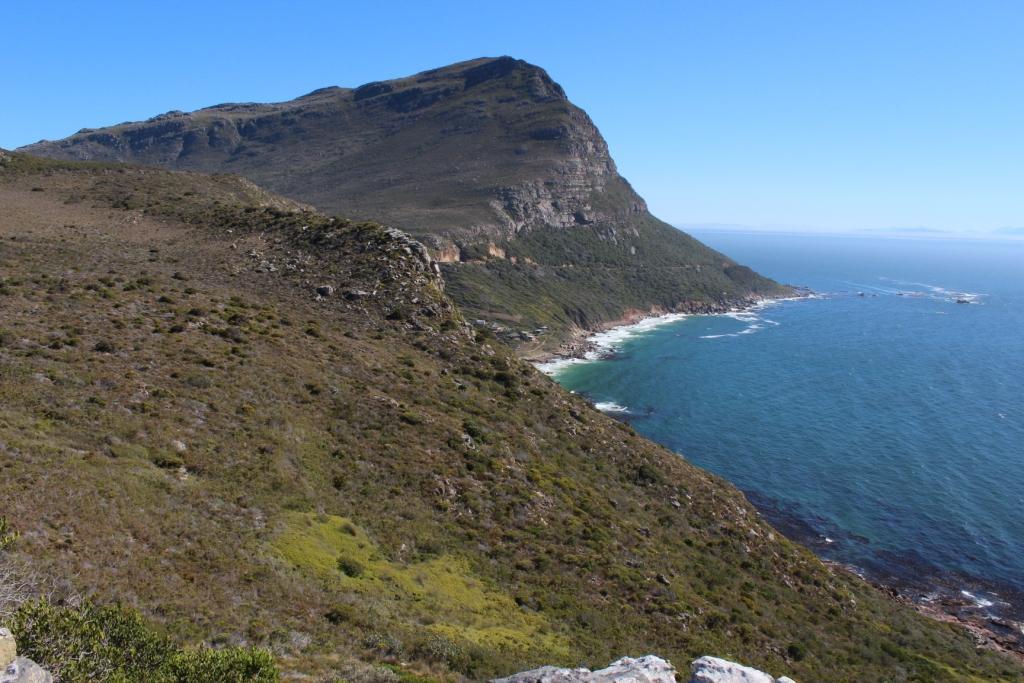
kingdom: Plantae
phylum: Tracheophyta
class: Polypodiopsida
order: Gleicheniales
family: Gleicheniaceae
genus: Gleichenia
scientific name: Gleichenia polypodioides
